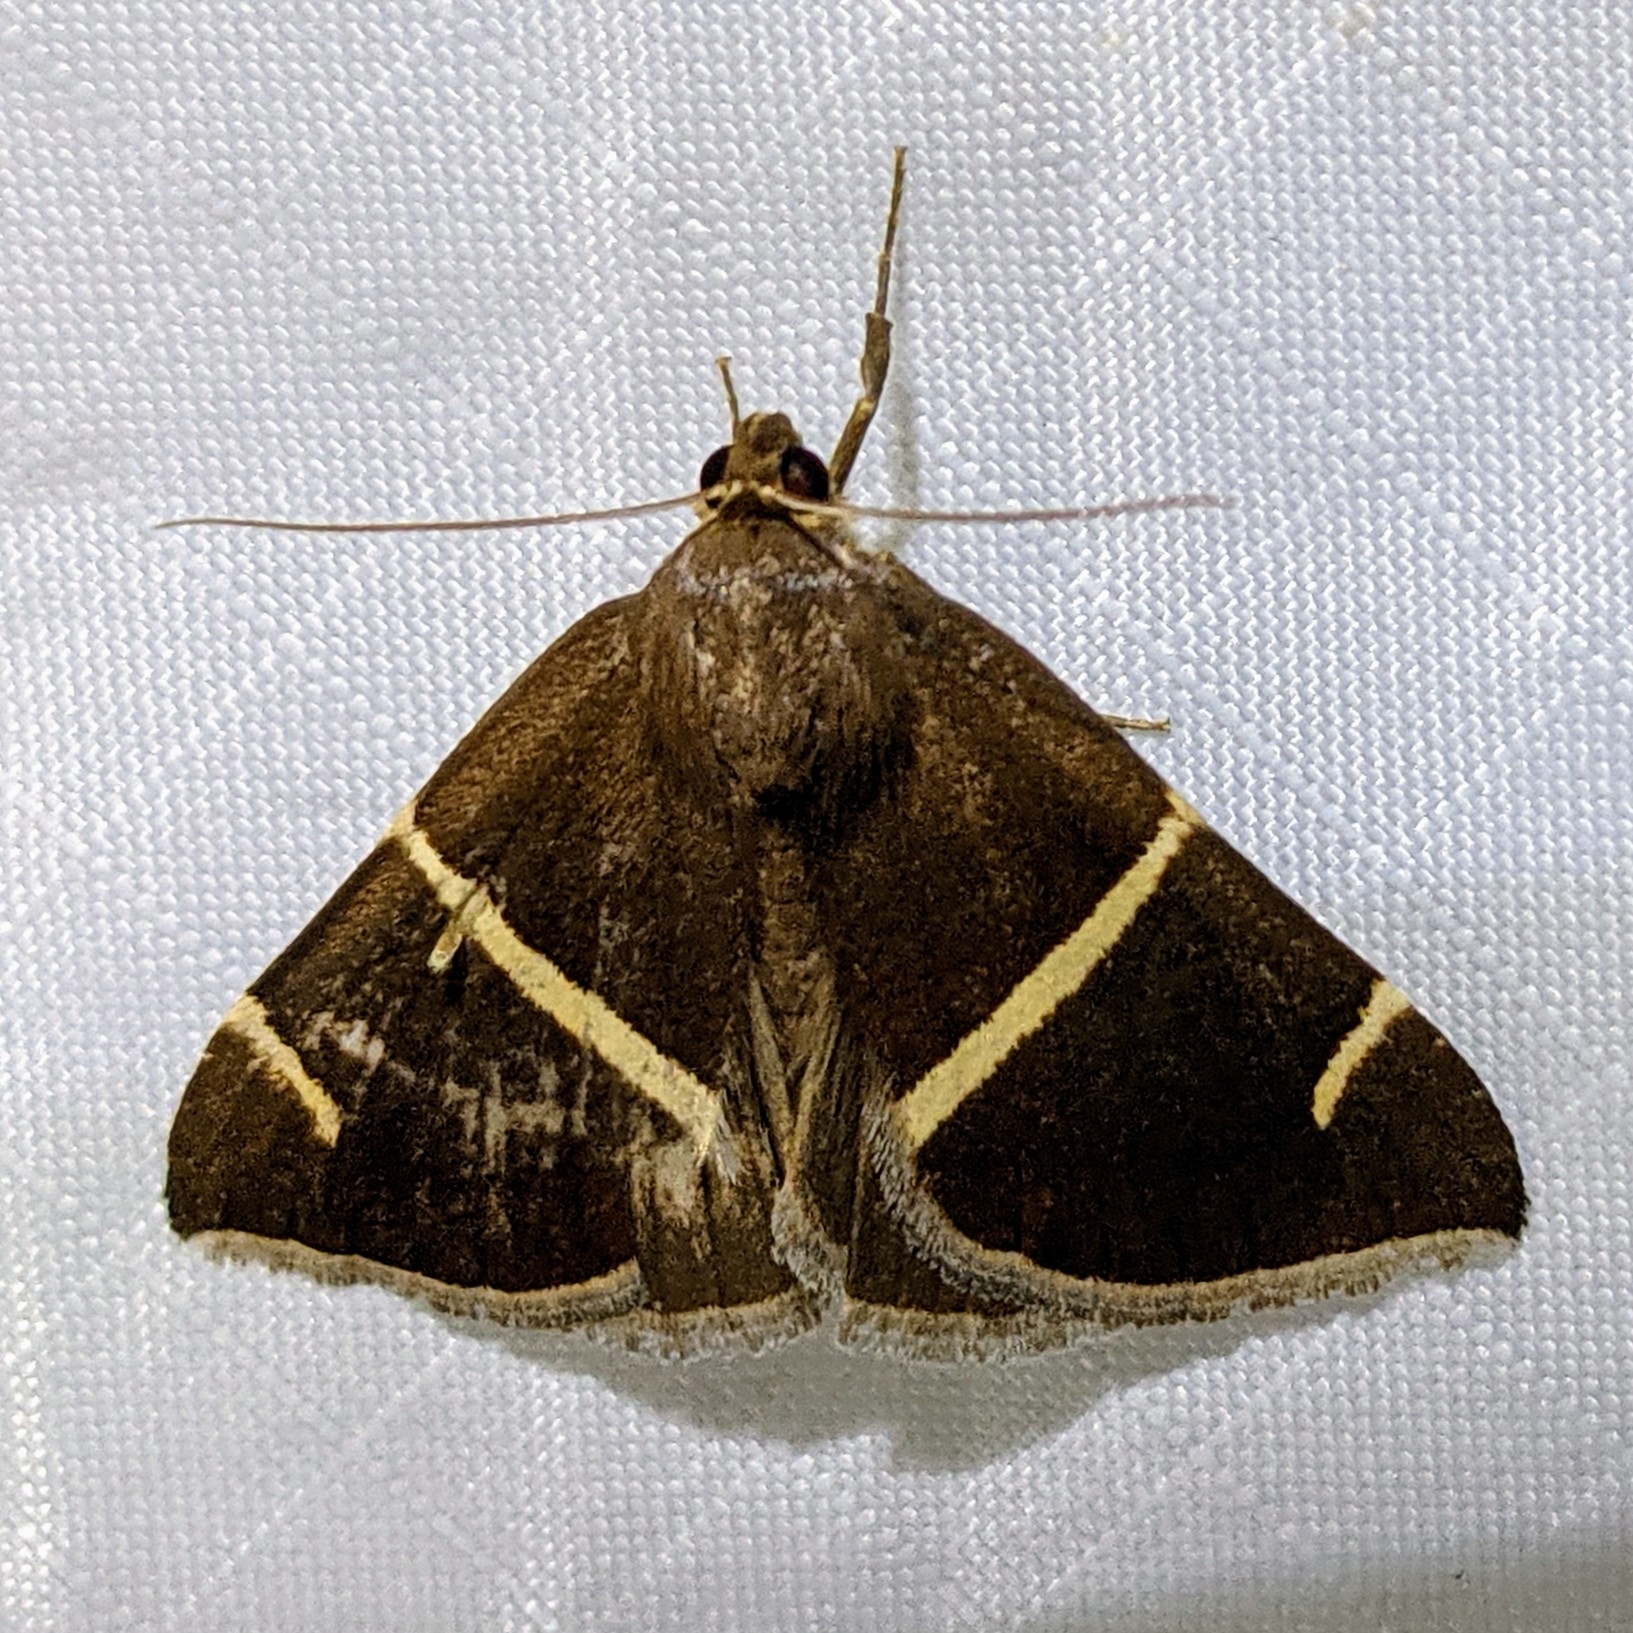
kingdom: Animalia
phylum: Arthropoda
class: Insecta
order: Lepidoptera
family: Erebidae
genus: Argyrostrotis
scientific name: Argyrostrotis anilis
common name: Short-lined chocolate
